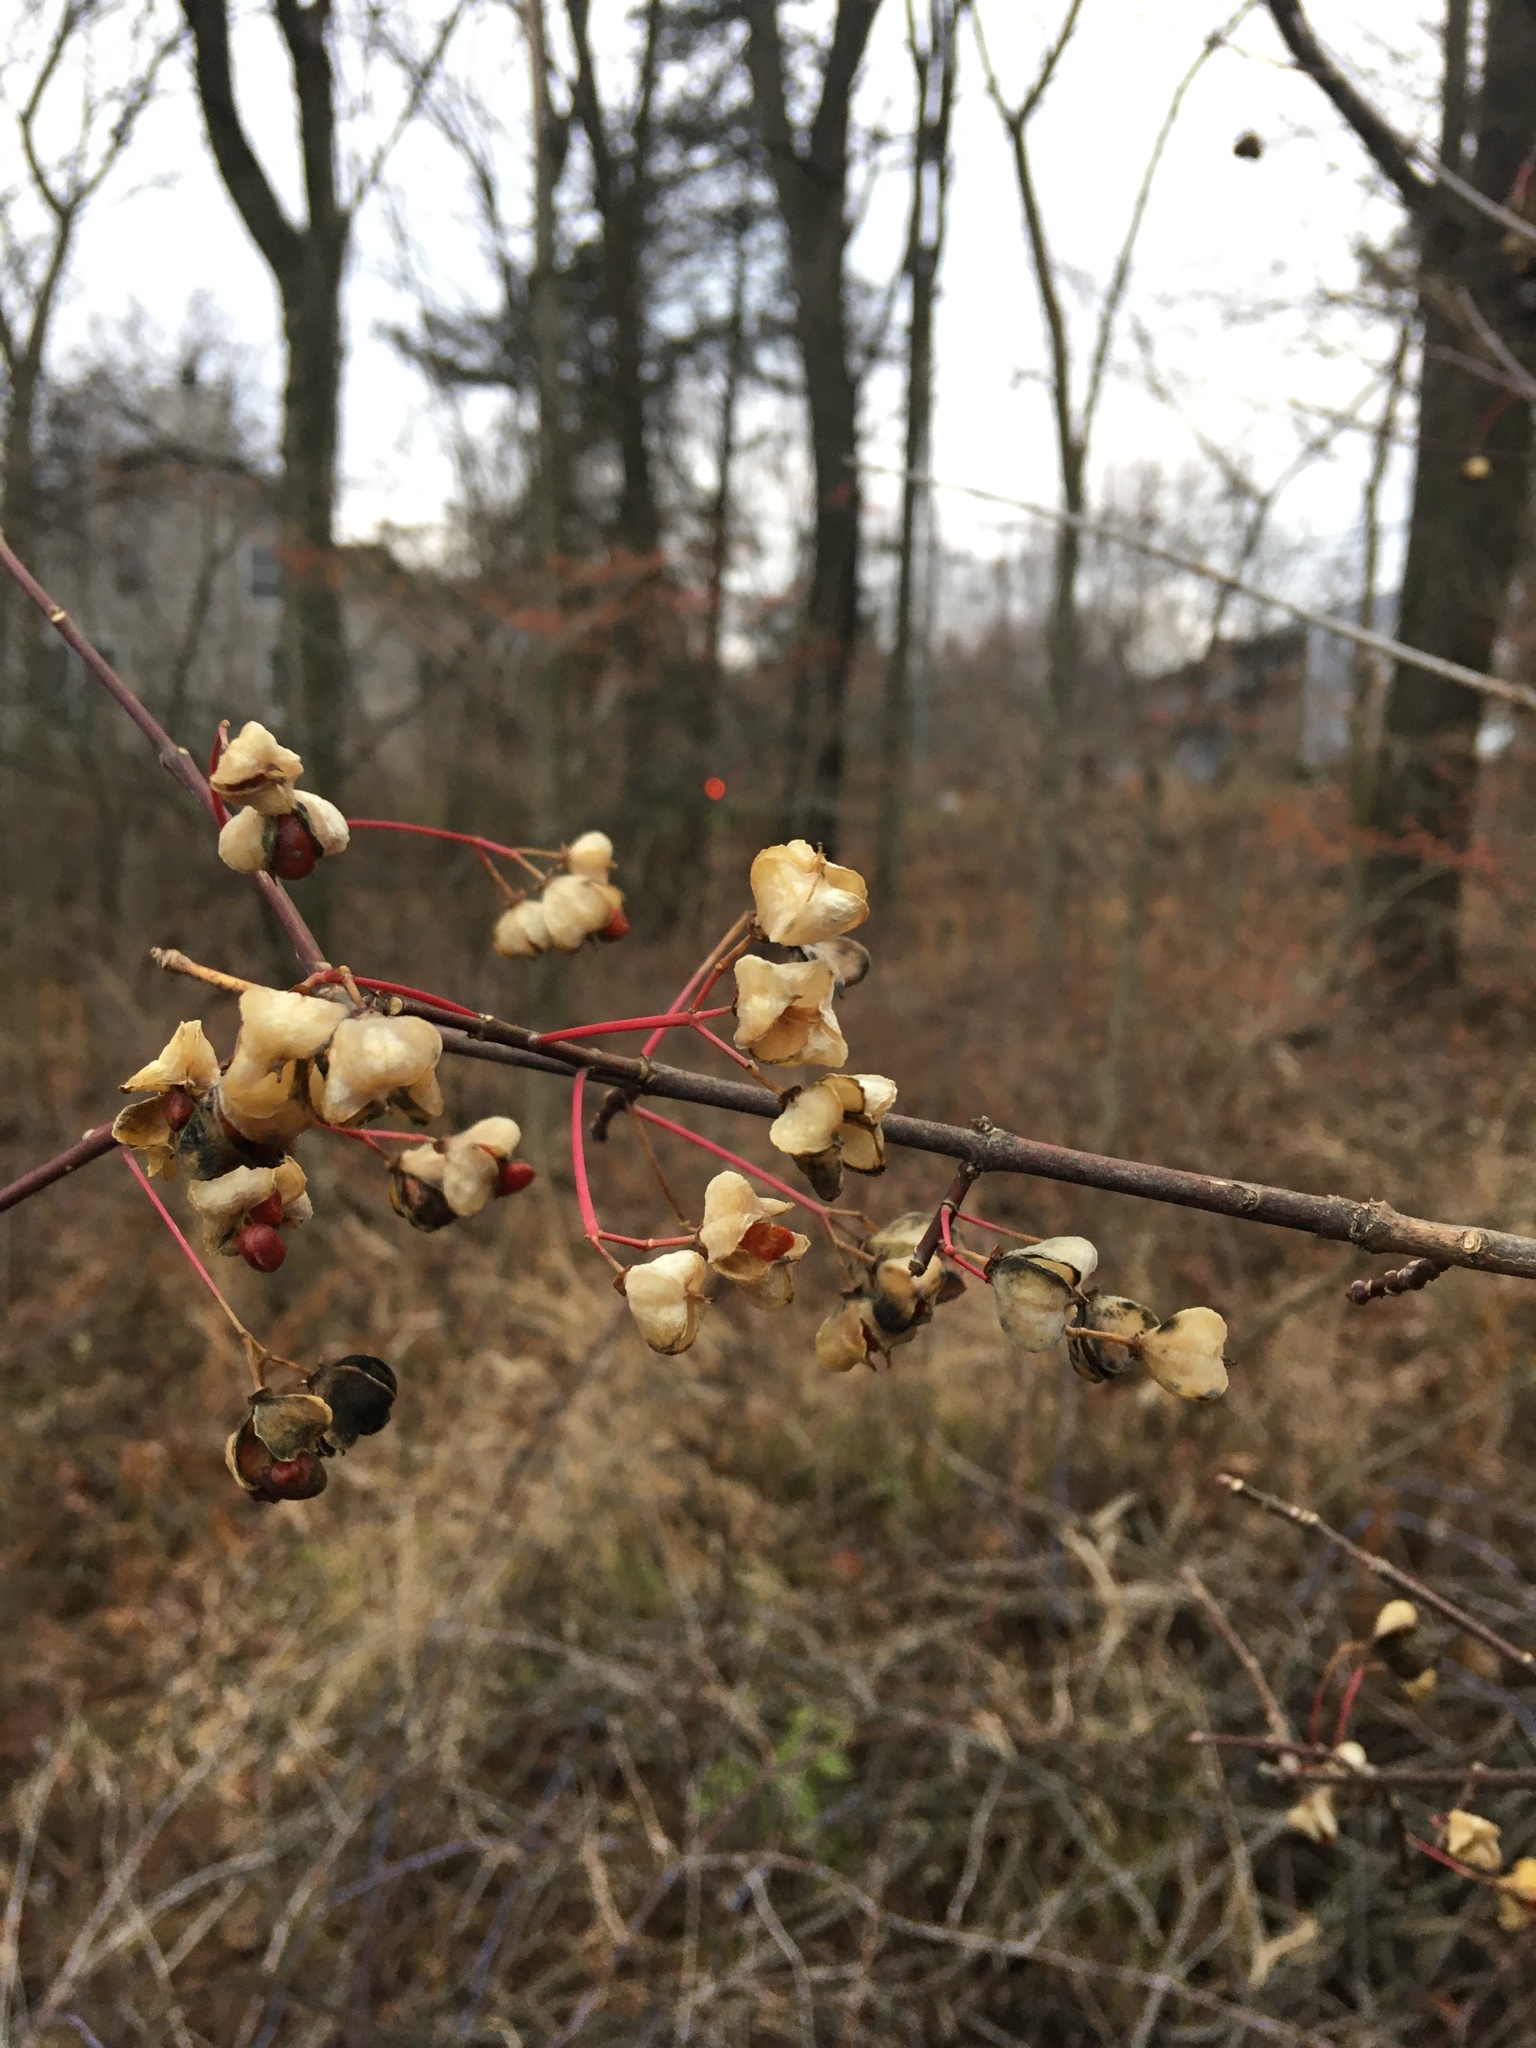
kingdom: Plantae
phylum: Tracheophyta
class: Magnoliopsida
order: Celastrales
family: Celastraceae
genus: Euonymus
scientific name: Euonymus atropurpureus
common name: Eastern wahoo
